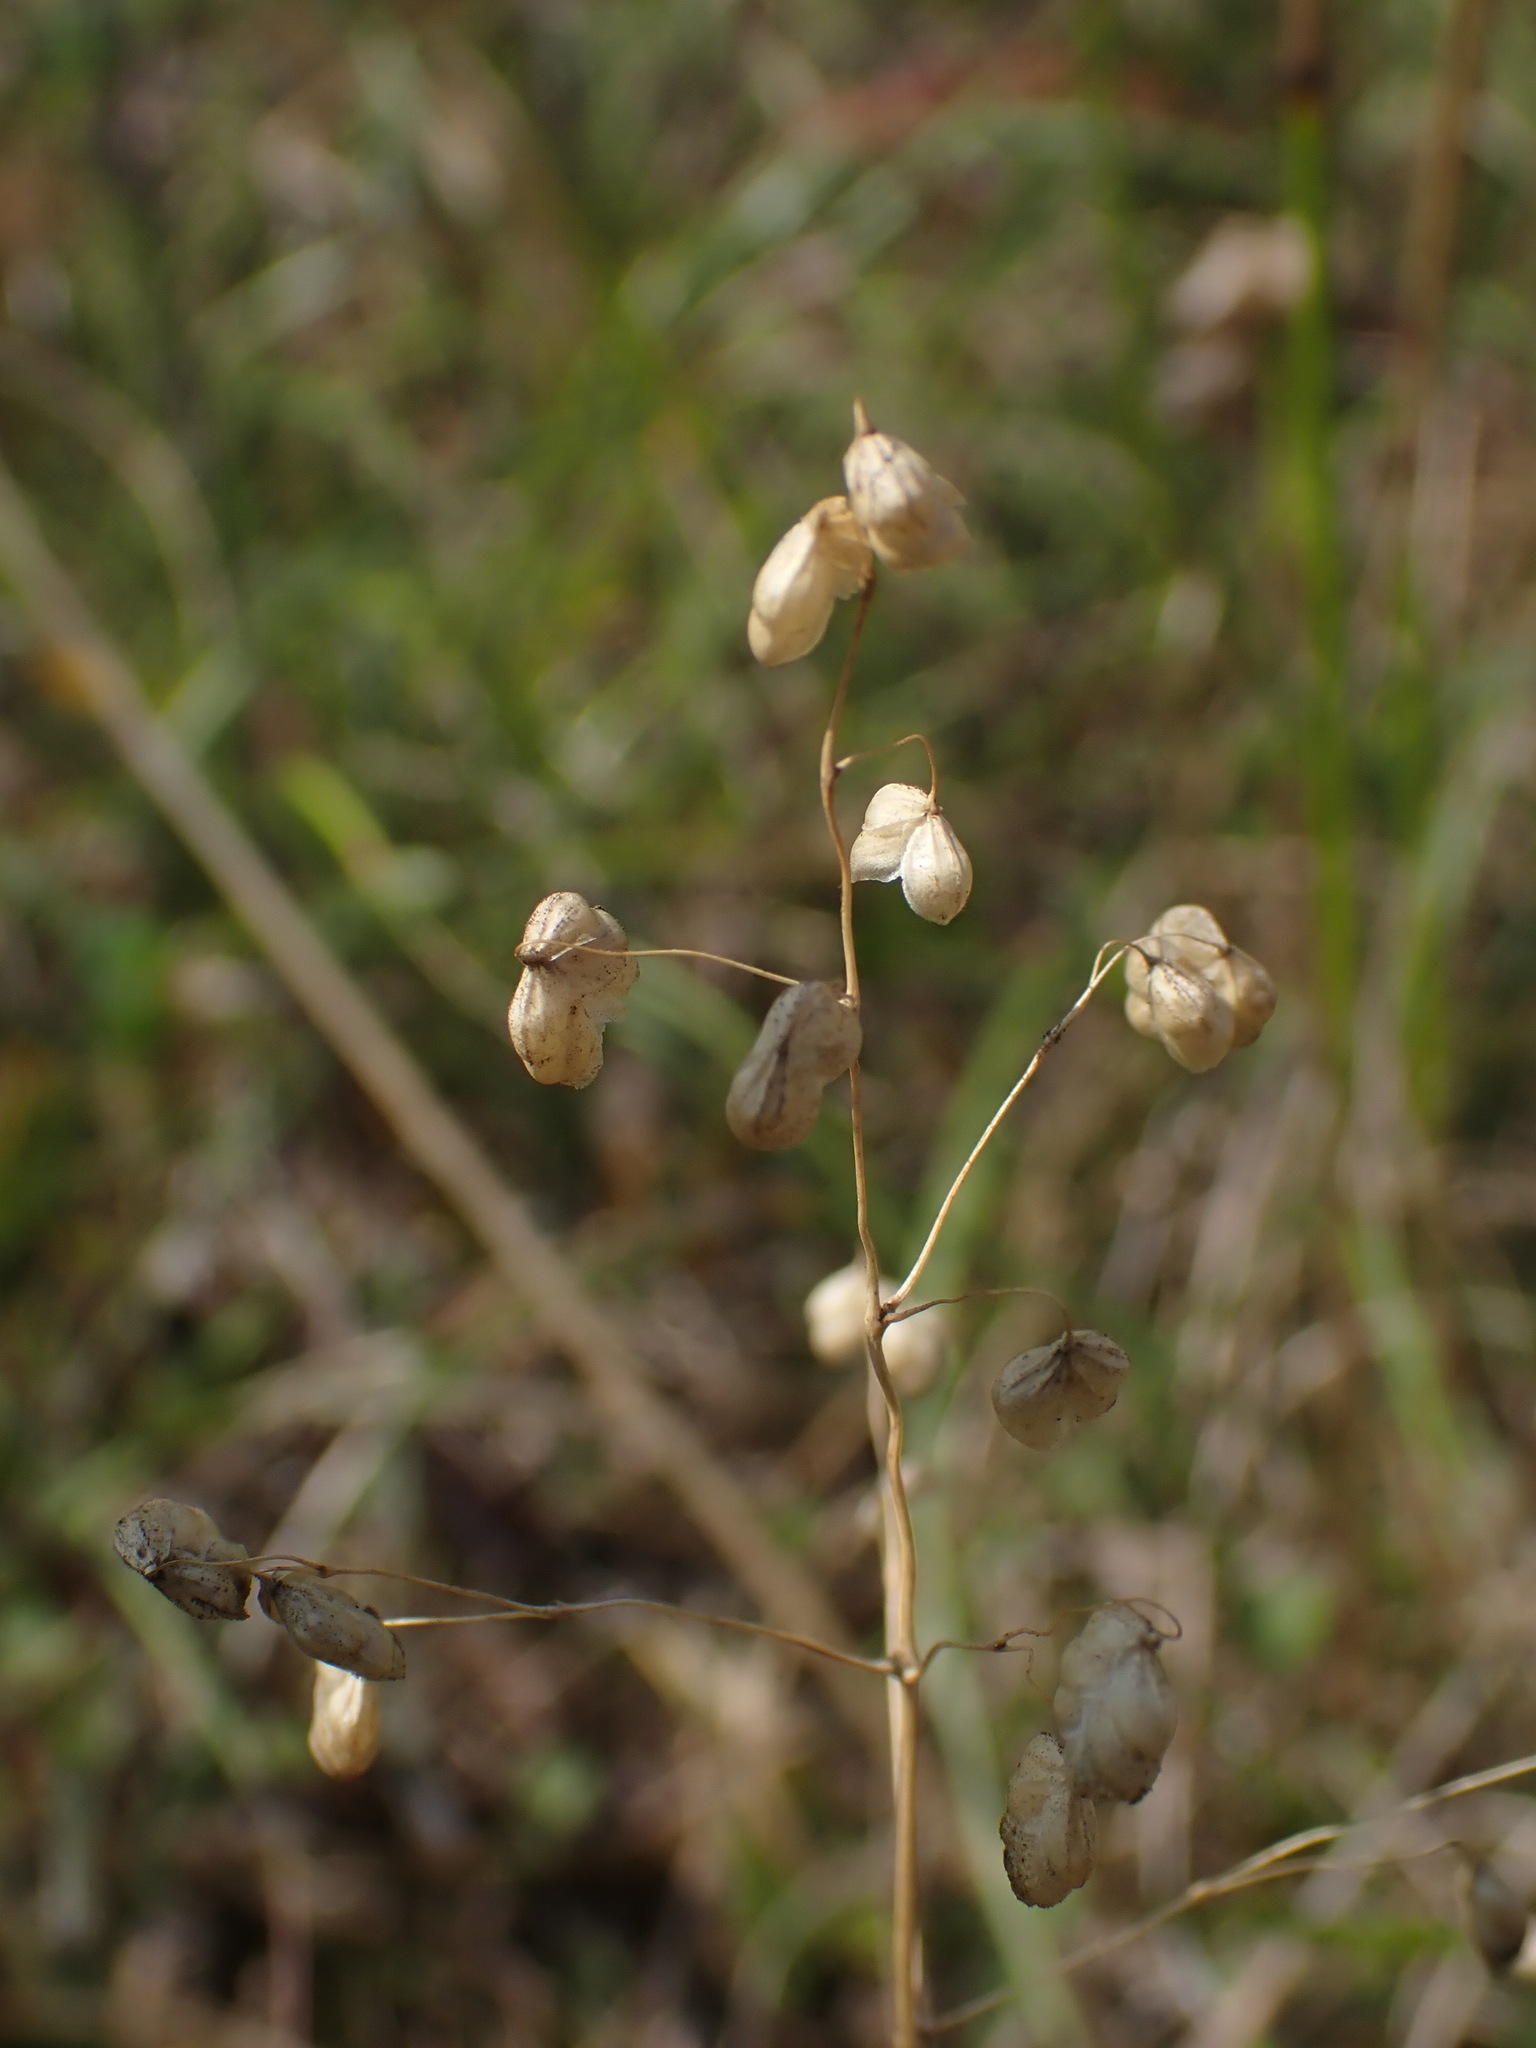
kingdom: Plantae
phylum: Tracheophyta
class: Liliopsida
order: Poales
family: Poaceae
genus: Briza
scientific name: Briza media
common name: Quaking grass
